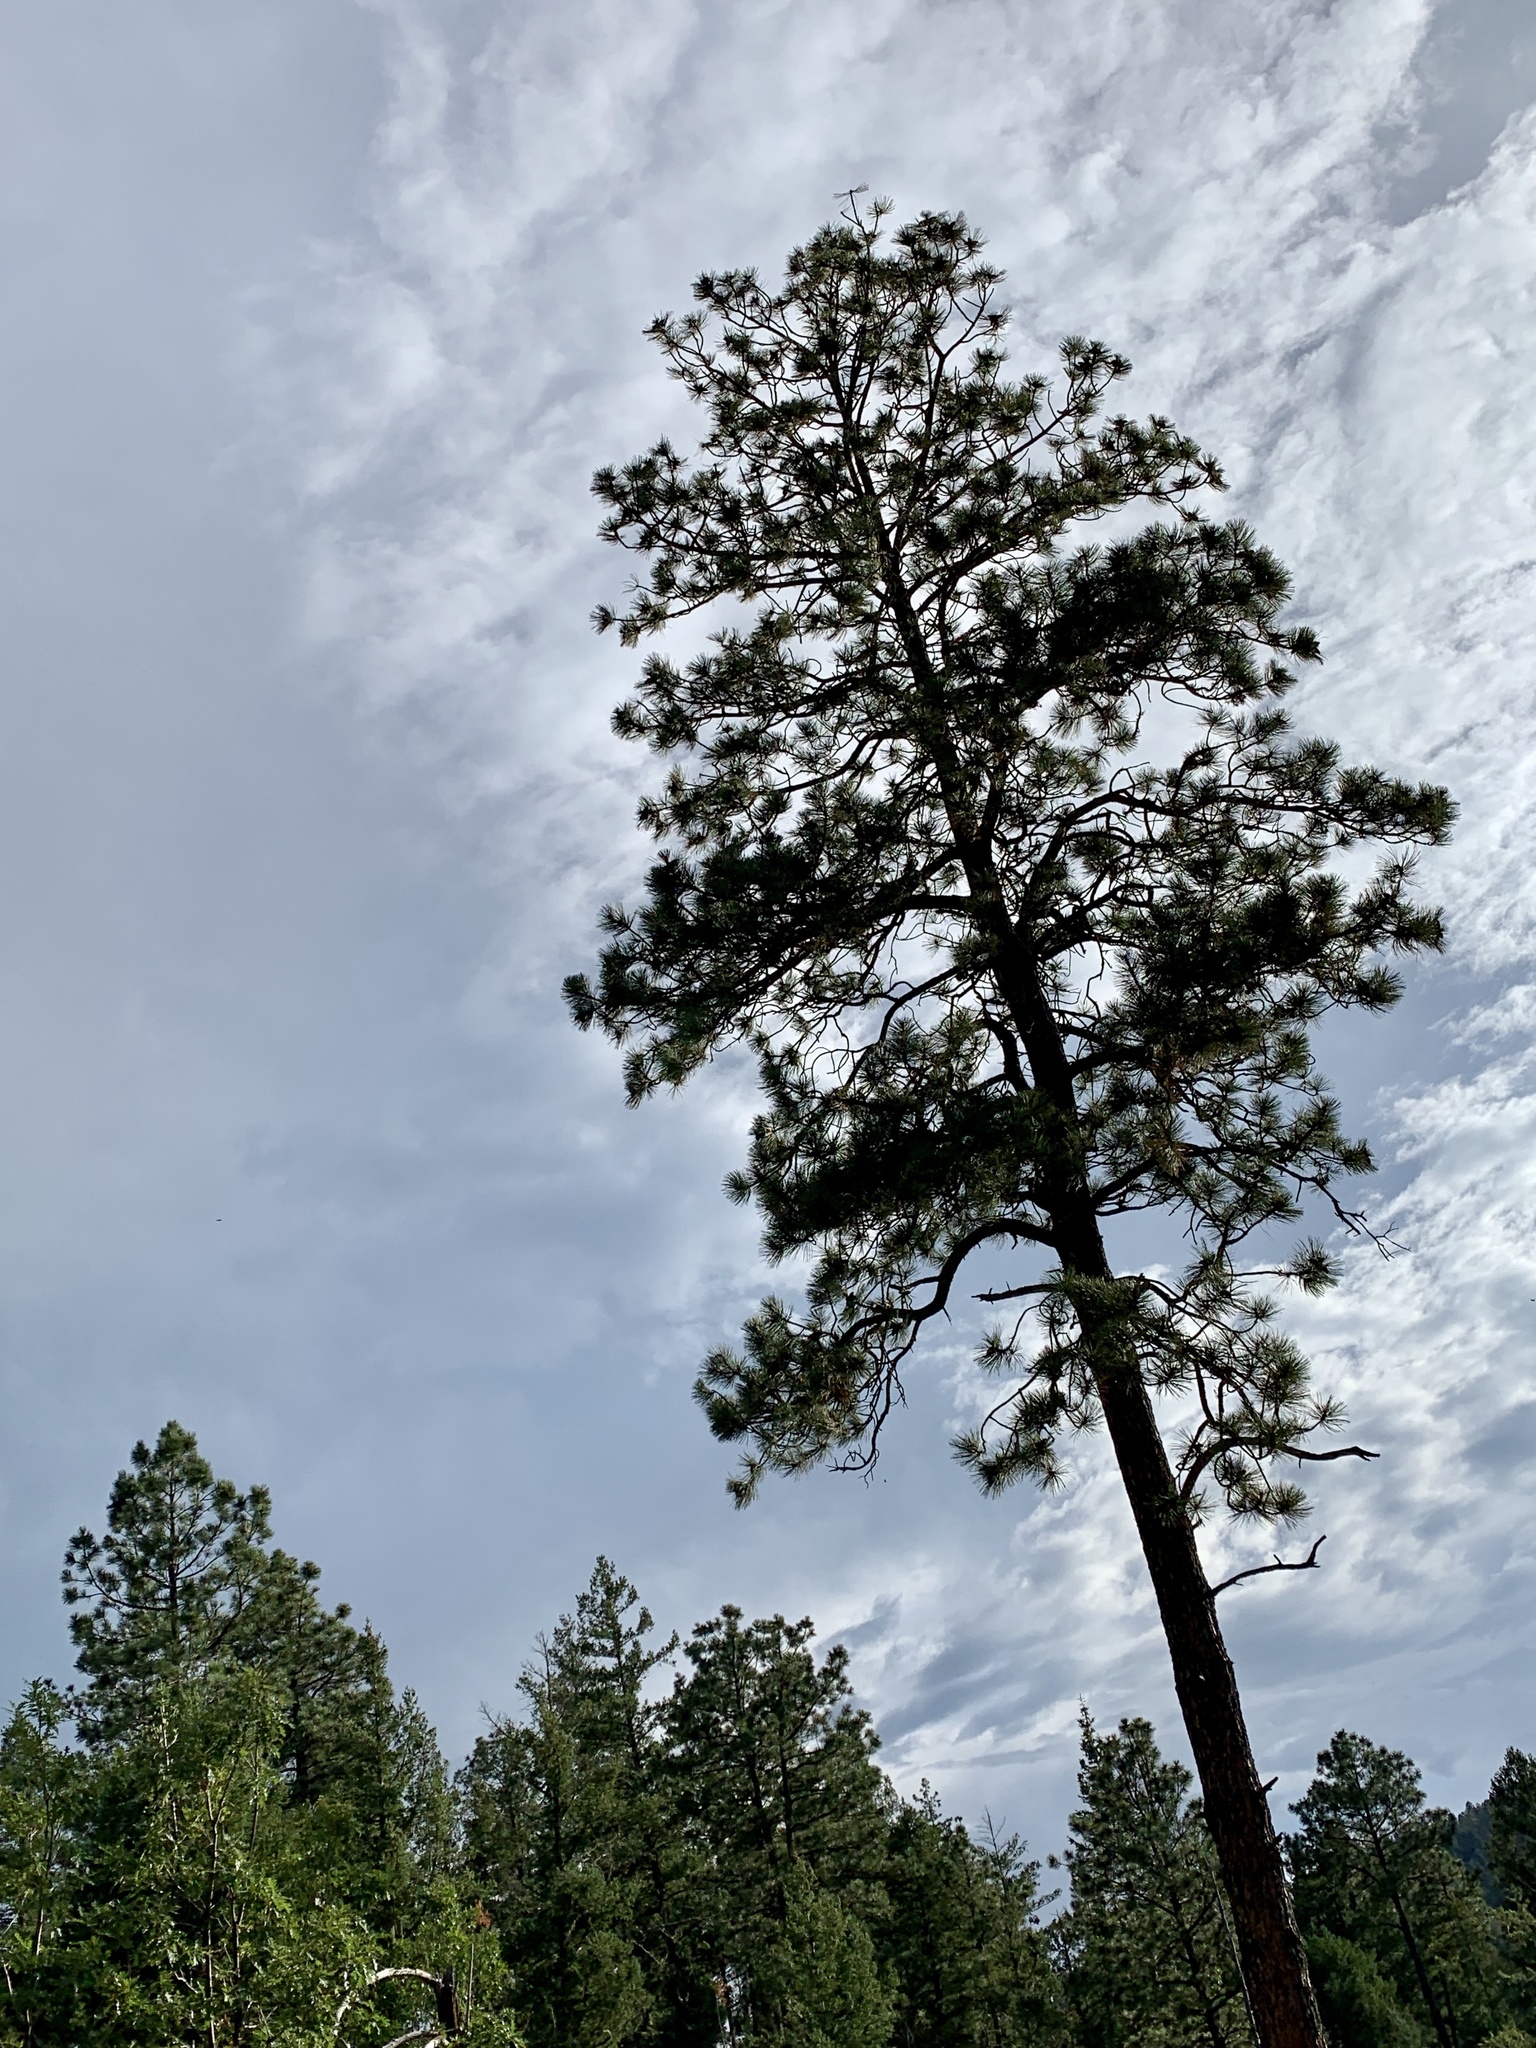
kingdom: Plantae
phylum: Tracheophyta
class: Pinopsida
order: Pinales
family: Pinaceae
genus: Pinus
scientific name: Pinus ponderosa
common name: Western yellow-pine
